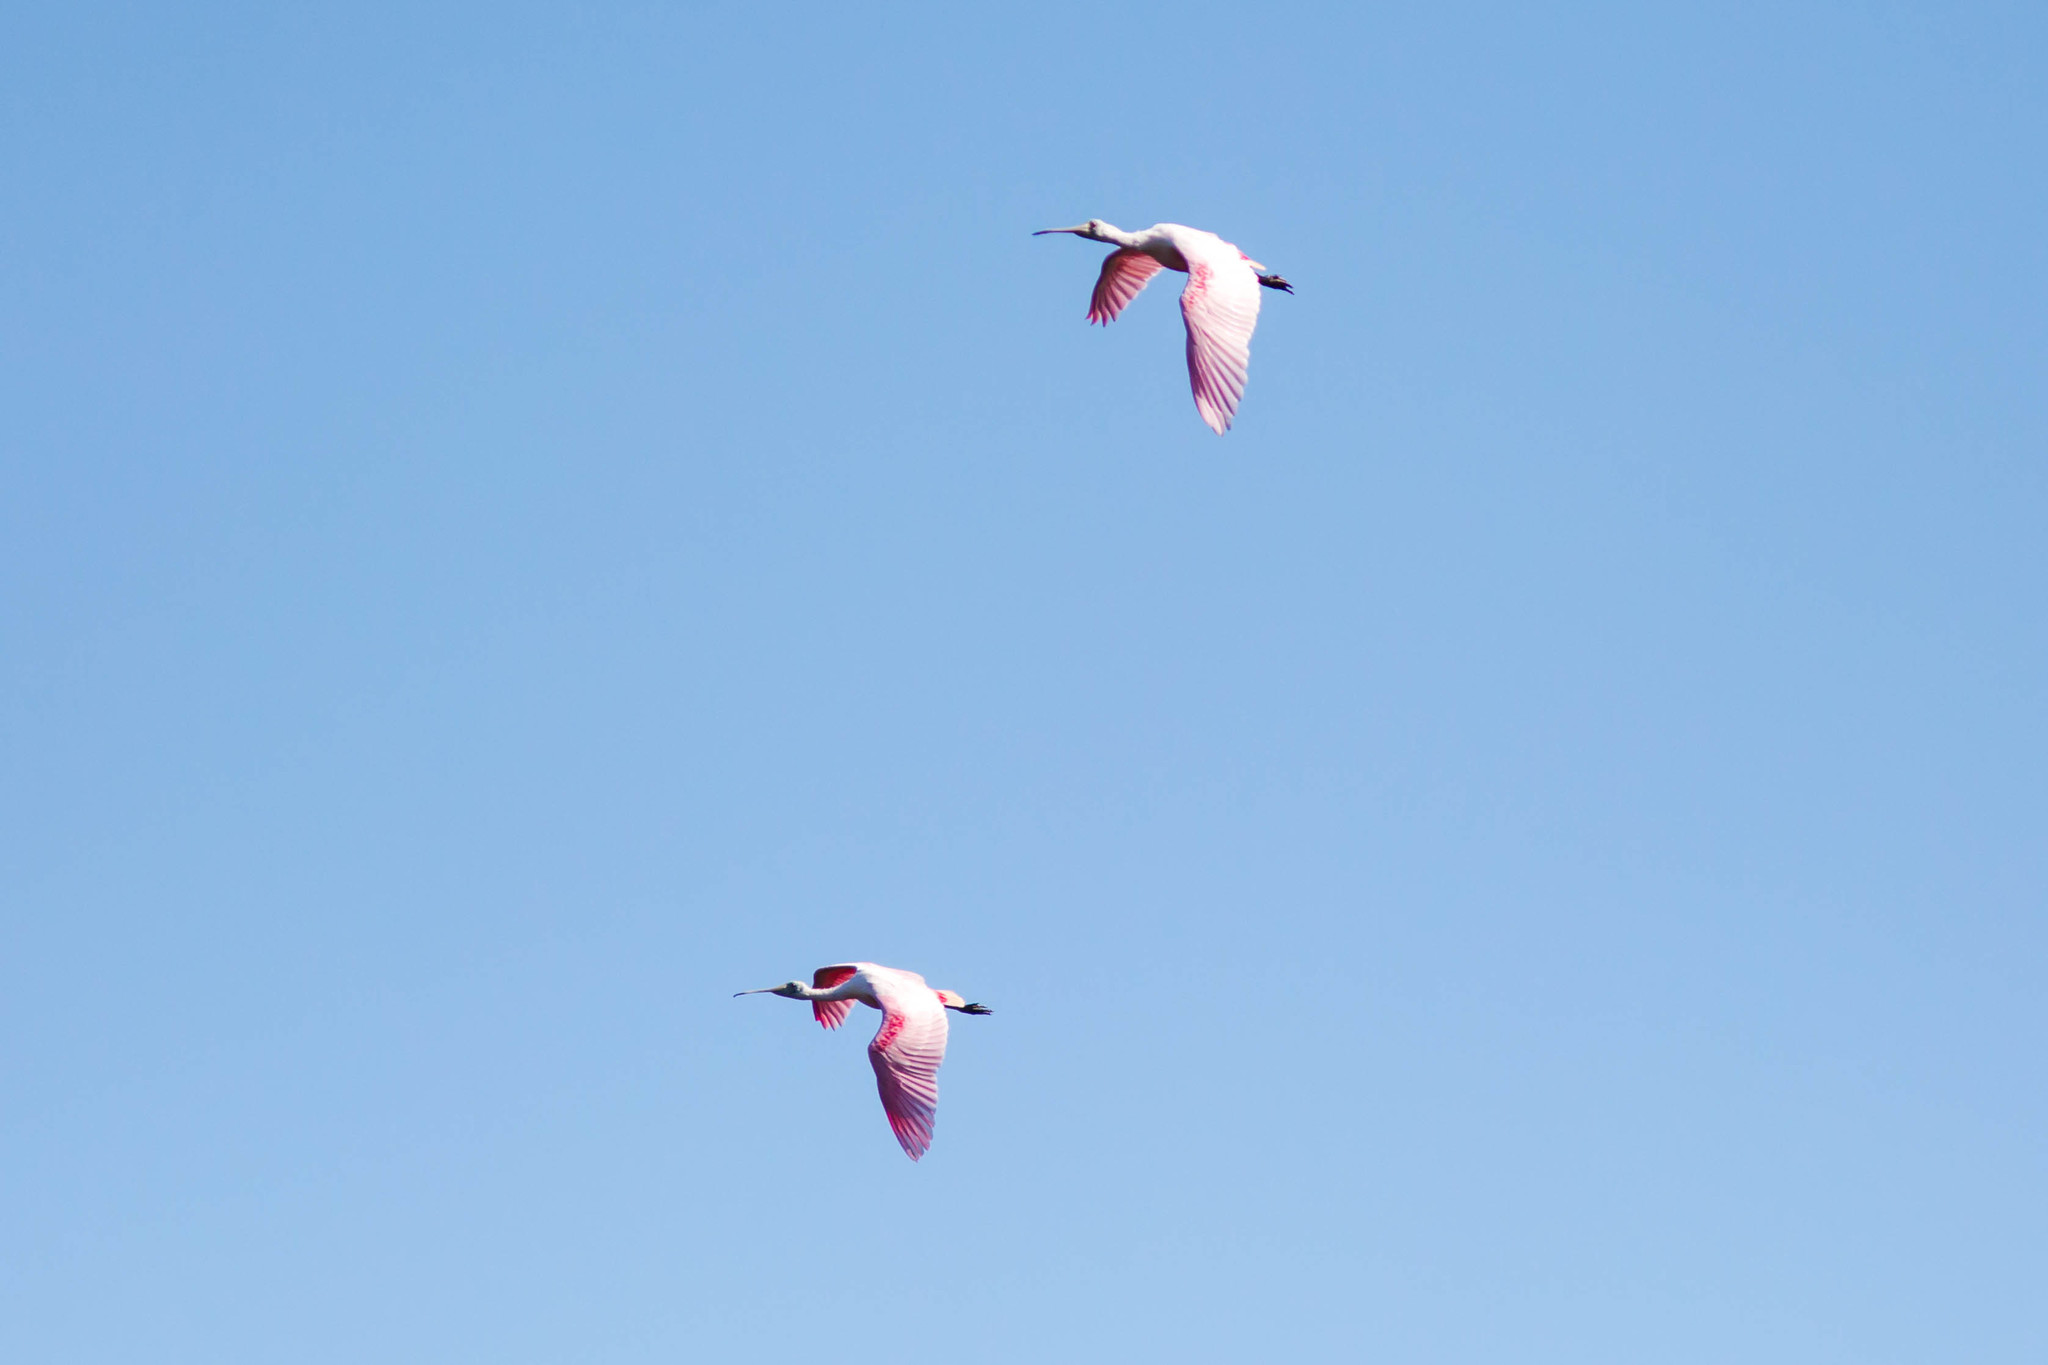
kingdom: Animalia
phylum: Chordata
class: Aves
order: Pelecaniformes
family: Threskiornithidae
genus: Platalea
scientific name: Platalea ajaja
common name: Roseate spoonbill
